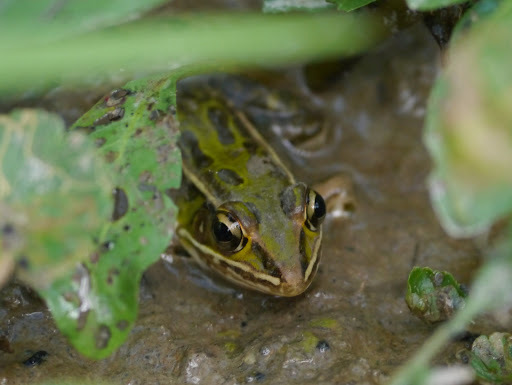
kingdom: Animalia
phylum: Chordata
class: Amphibia
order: Anura
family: Ranidae
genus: Lithobates
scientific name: Lithobates sphenocephalus
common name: Southern leopard frog
